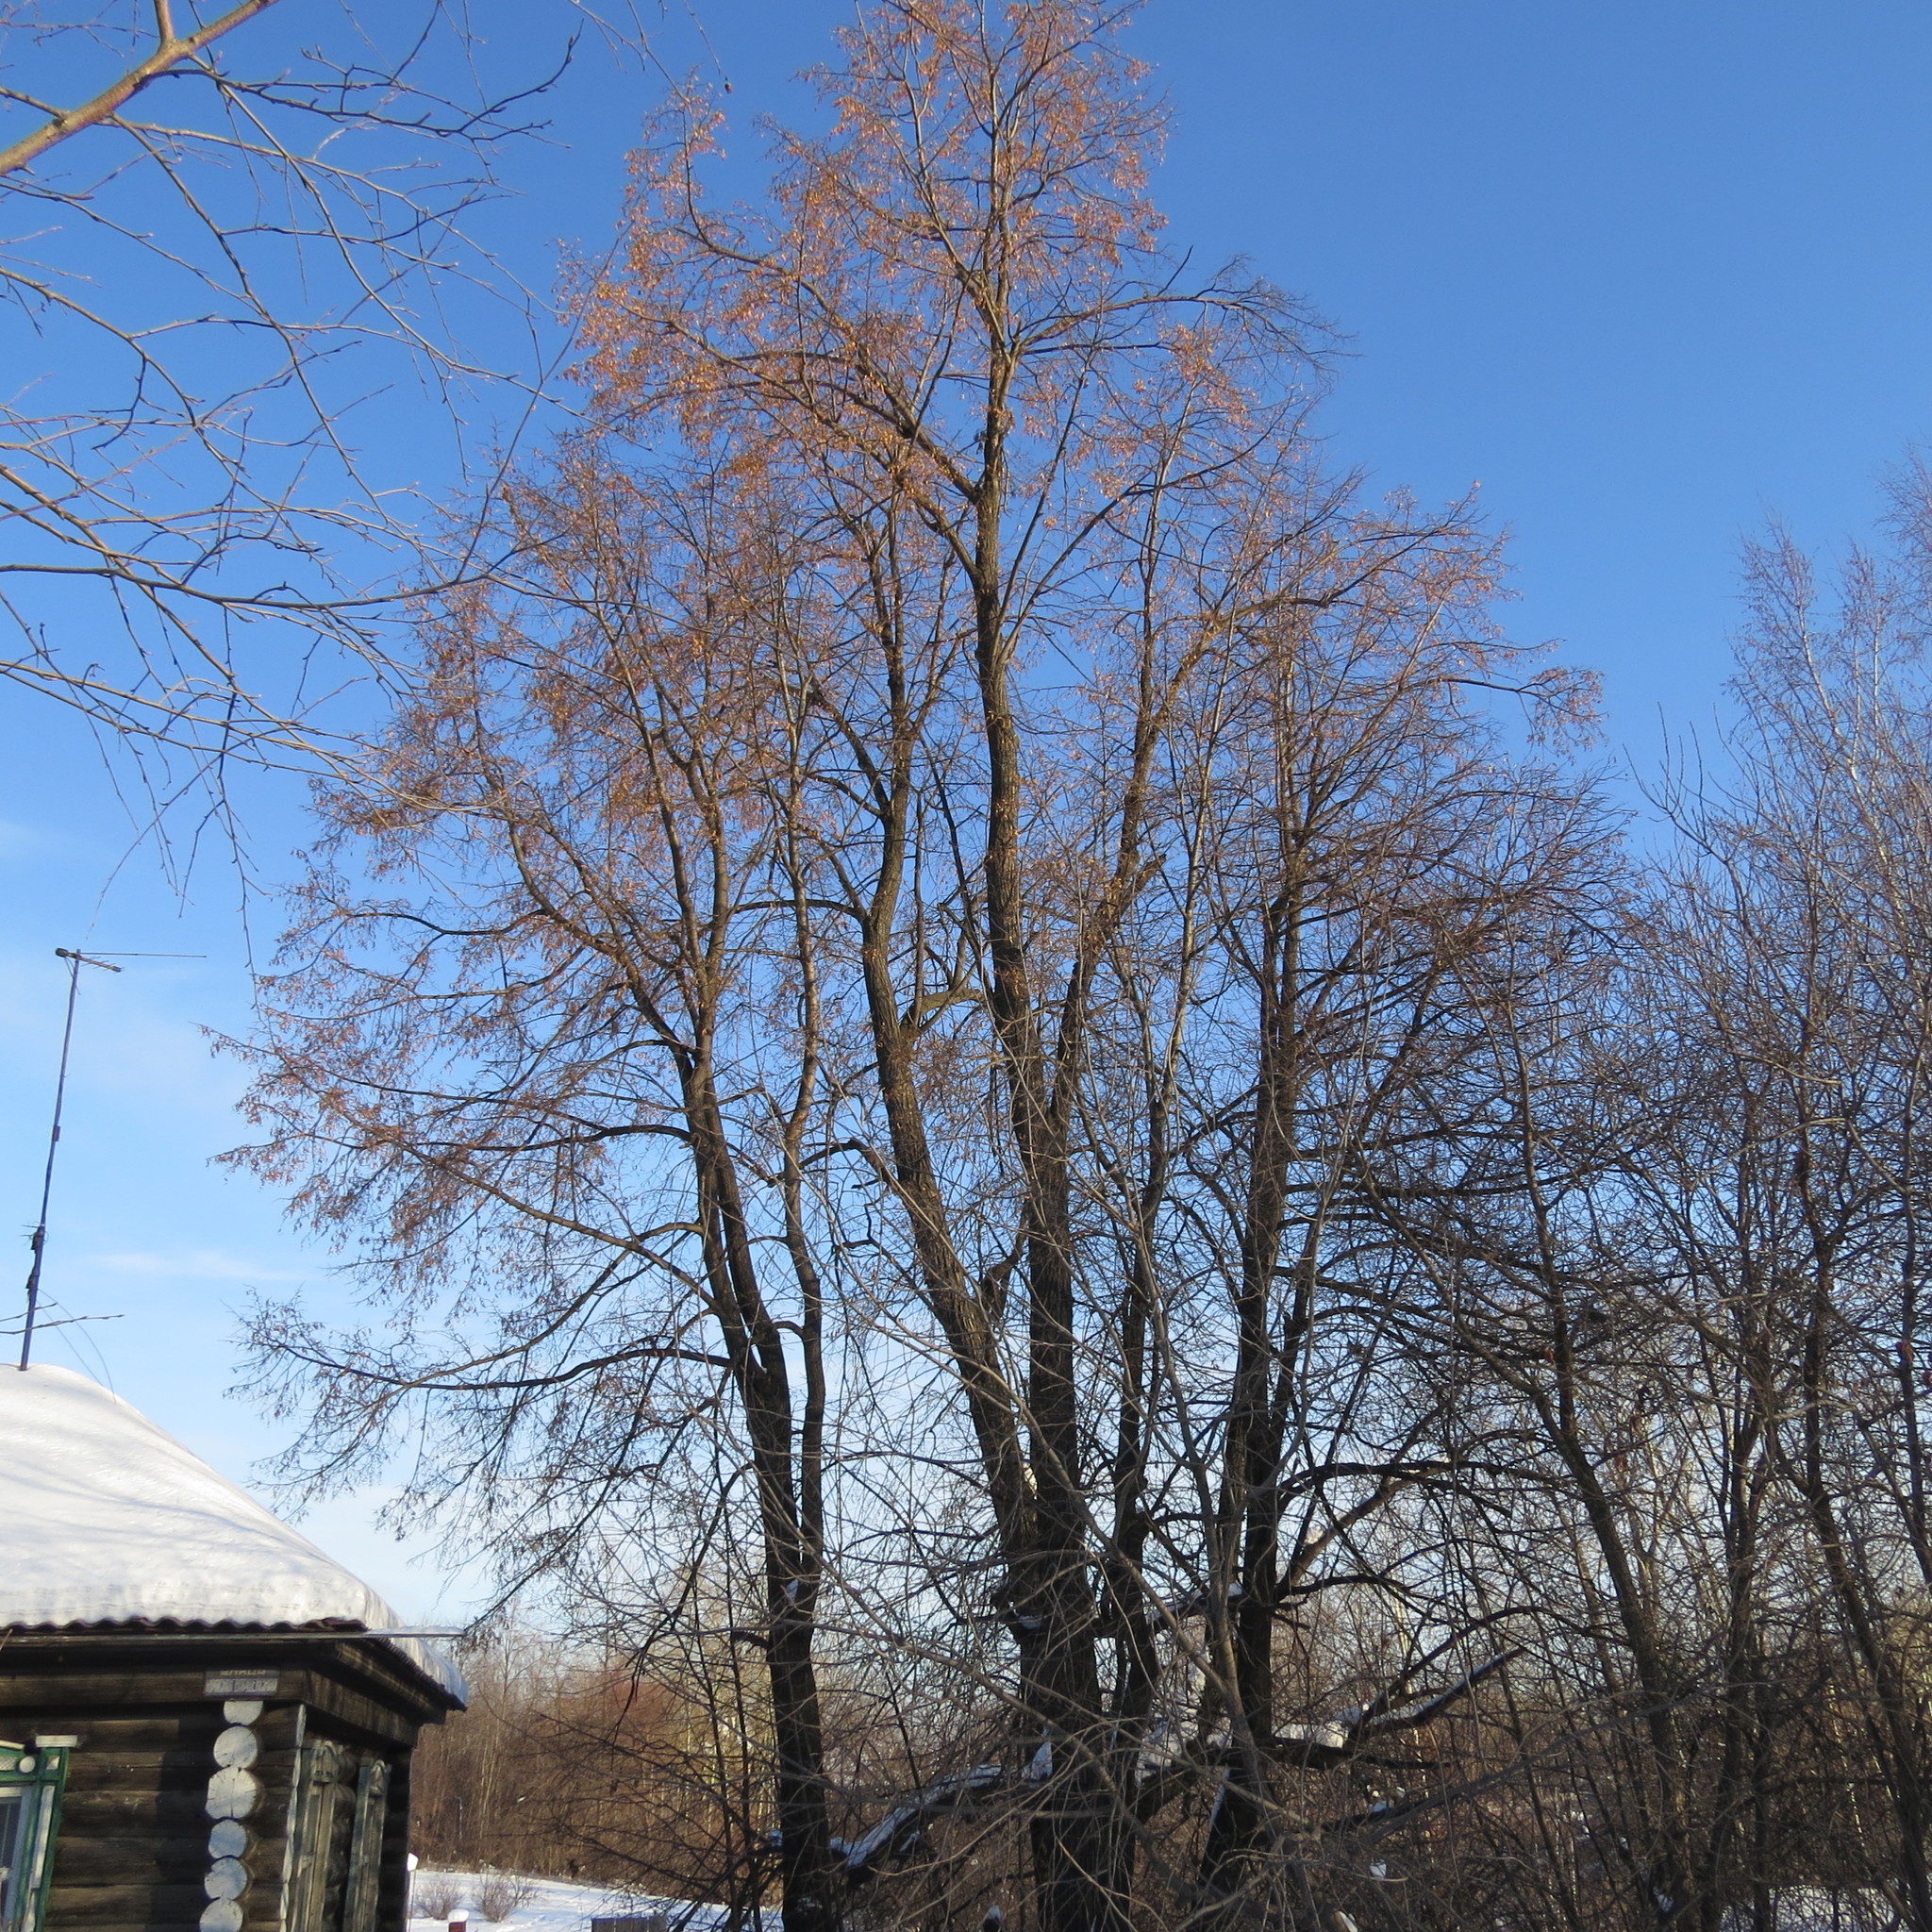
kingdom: Plantae
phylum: Tracheophyta
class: Magnoliopsida
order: Malvales
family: Malvaceae
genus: Tilia
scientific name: Tilia cordata
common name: Small-leaved lime
